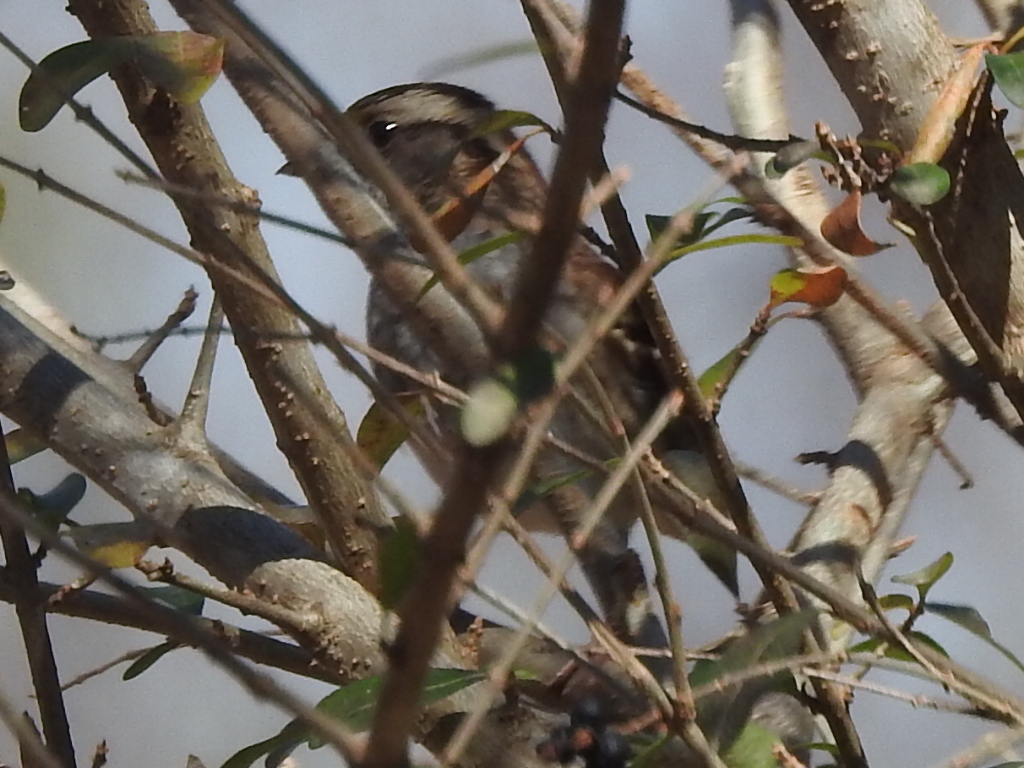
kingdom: Animalia
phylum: Chordata
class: Aves
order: Passeriformes
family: Passerellidae
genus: Zonotrichia
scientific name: Zonotrichia albicollis
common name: White-throated sparrow
